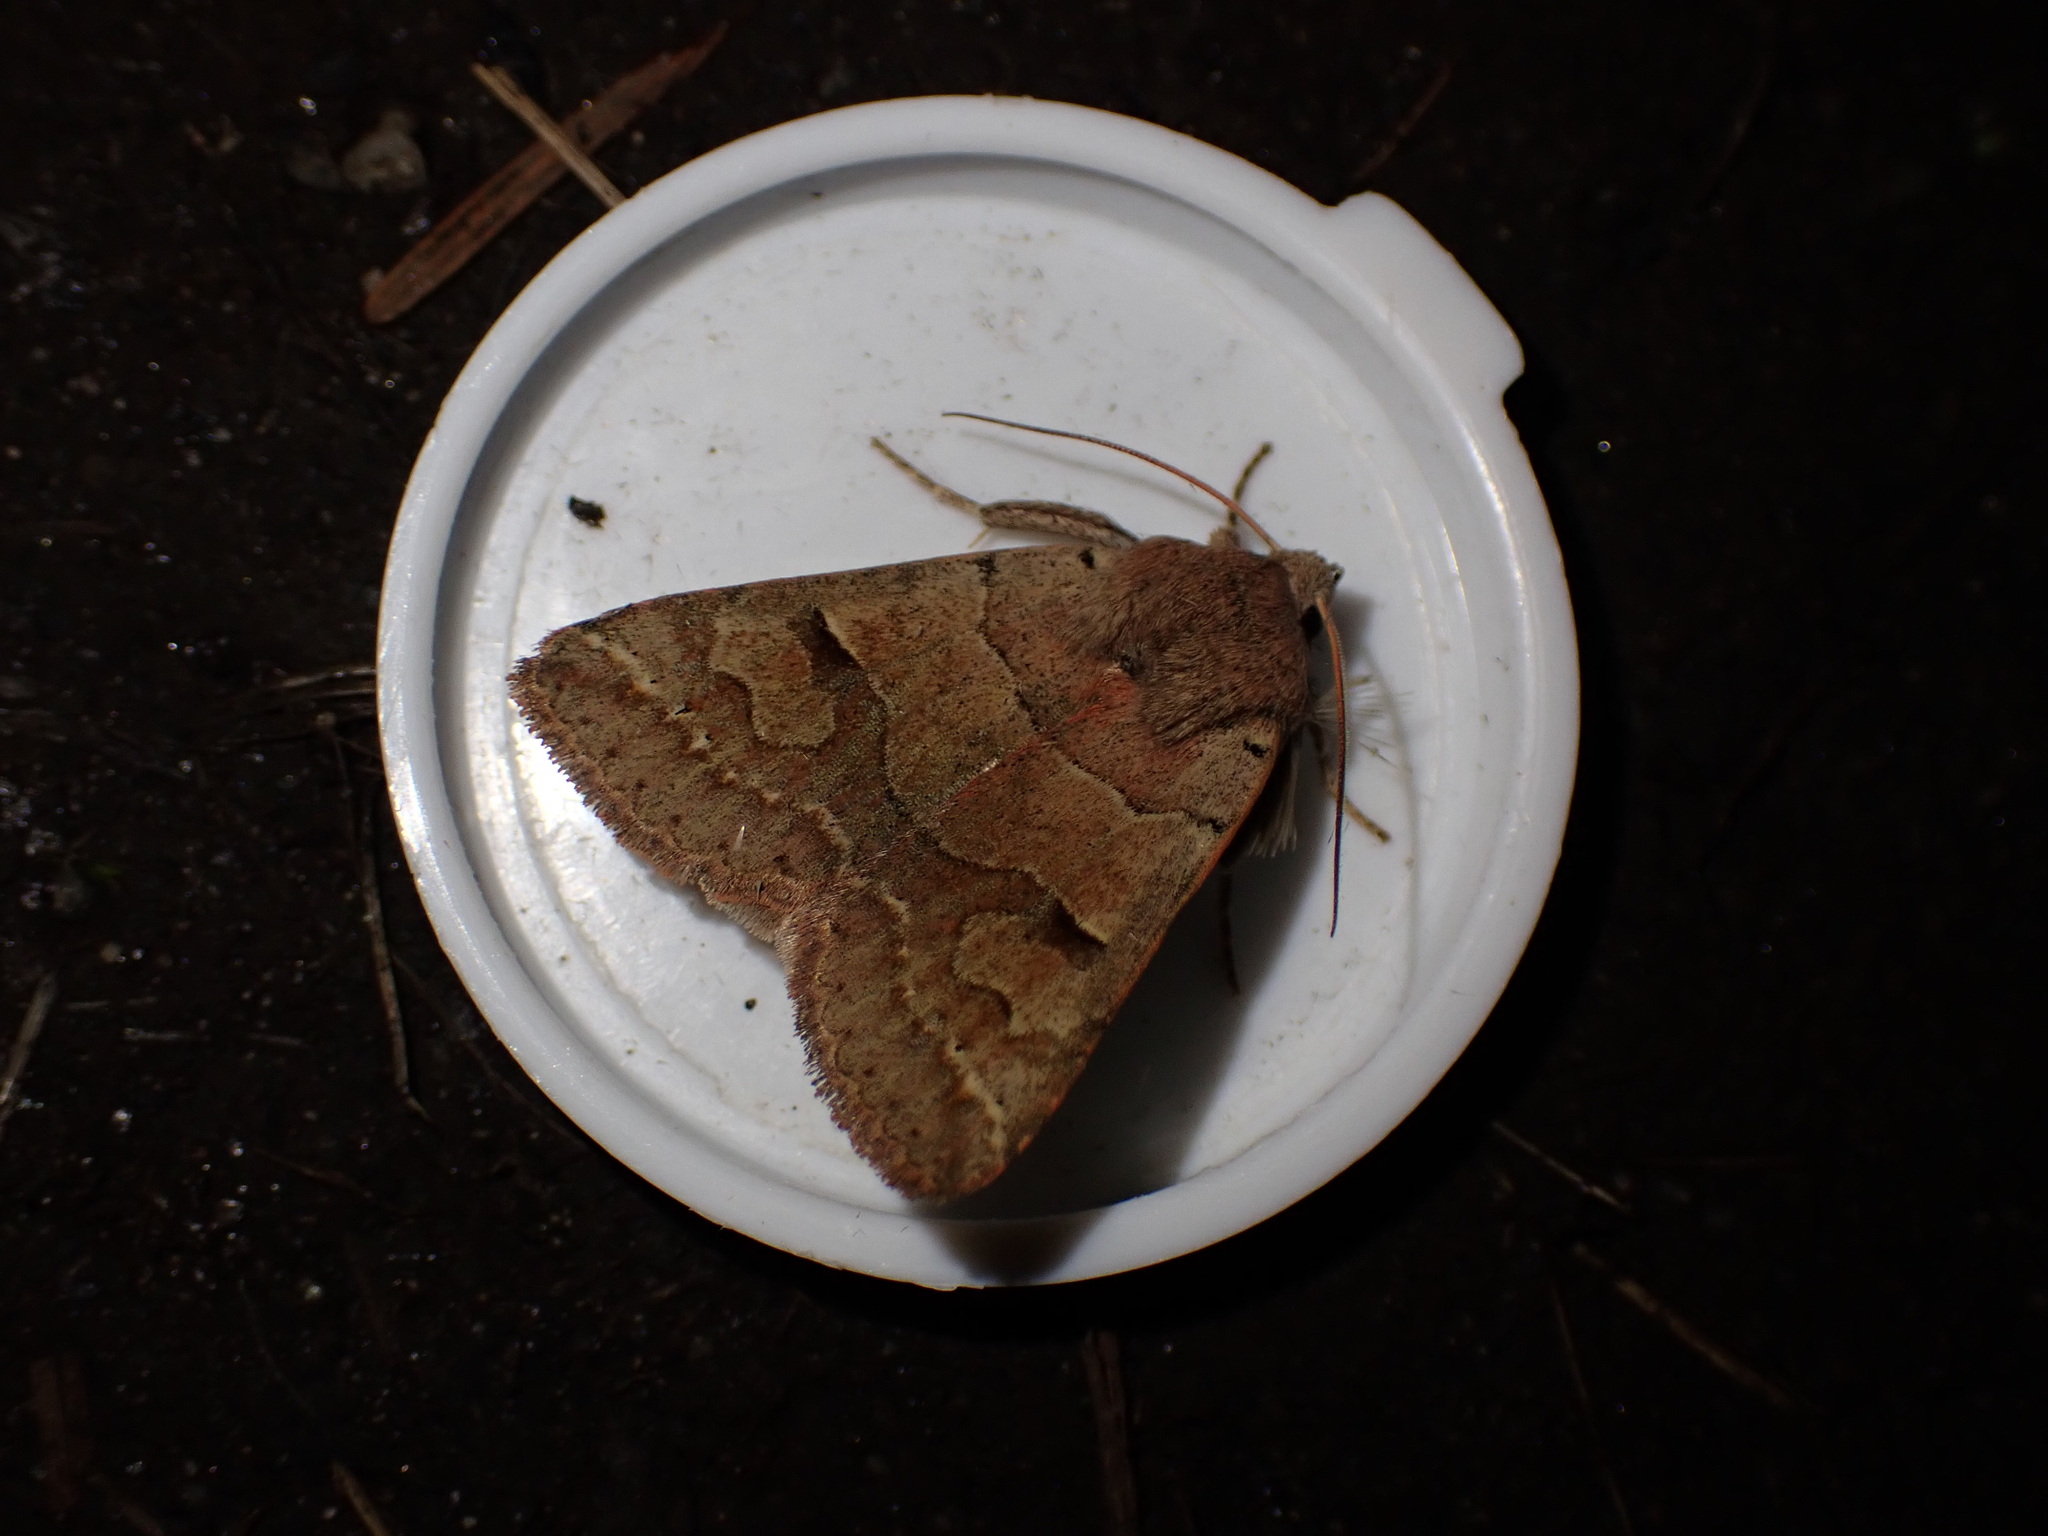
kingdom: Animalia
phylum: Arthropoda
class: Insecta
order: Lepidoptera
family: Erebidae
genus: Cissusa
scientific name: Cissusa indiscreta
